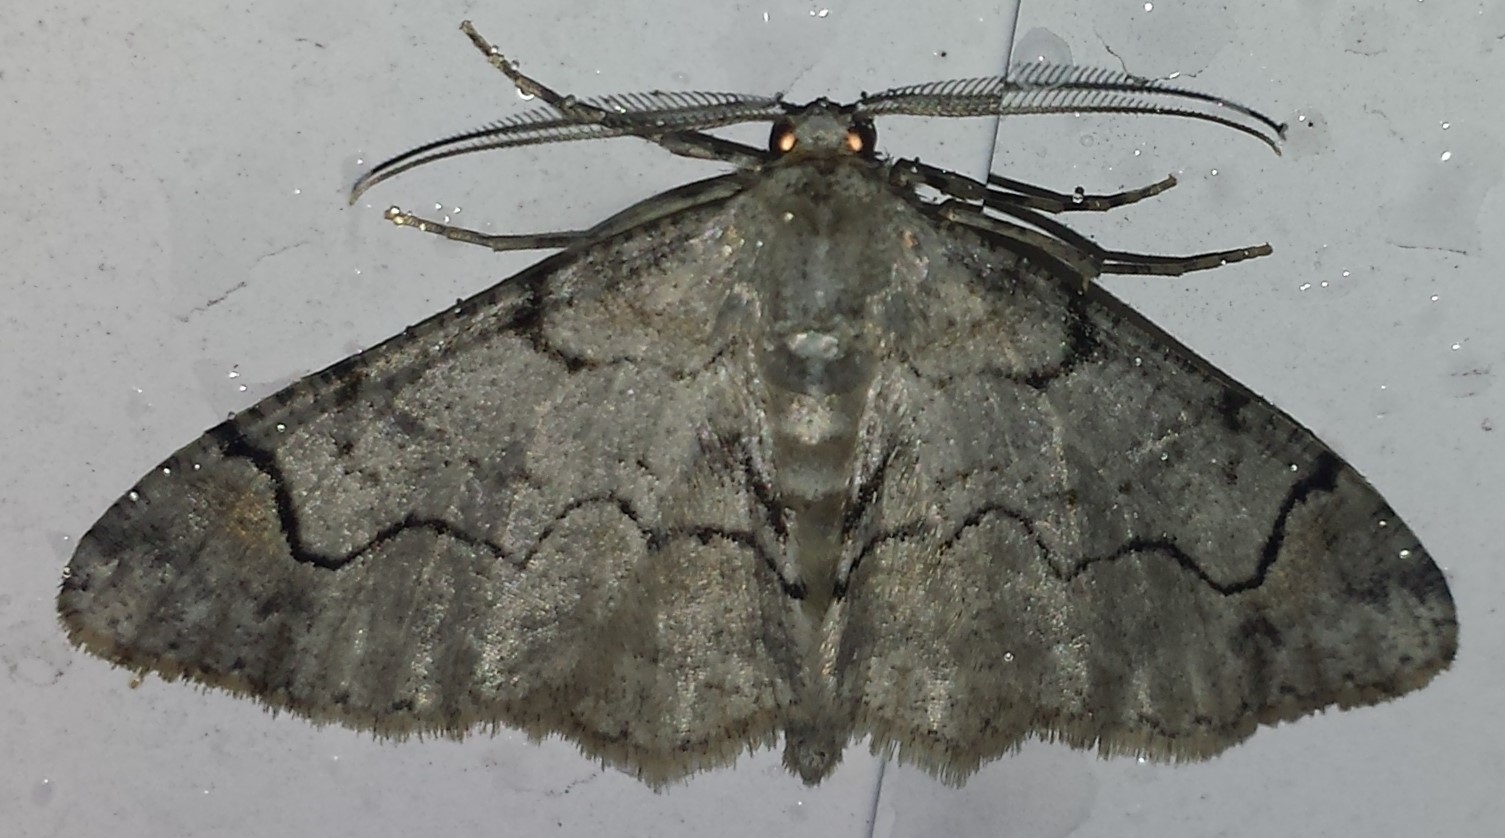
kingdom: Animalia
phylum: Arthropoda
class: Insecta
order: Lepidoptera
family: Geometridae
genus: Iridopsis
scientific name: Iridopsis larvaria
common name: Bent-line gray
